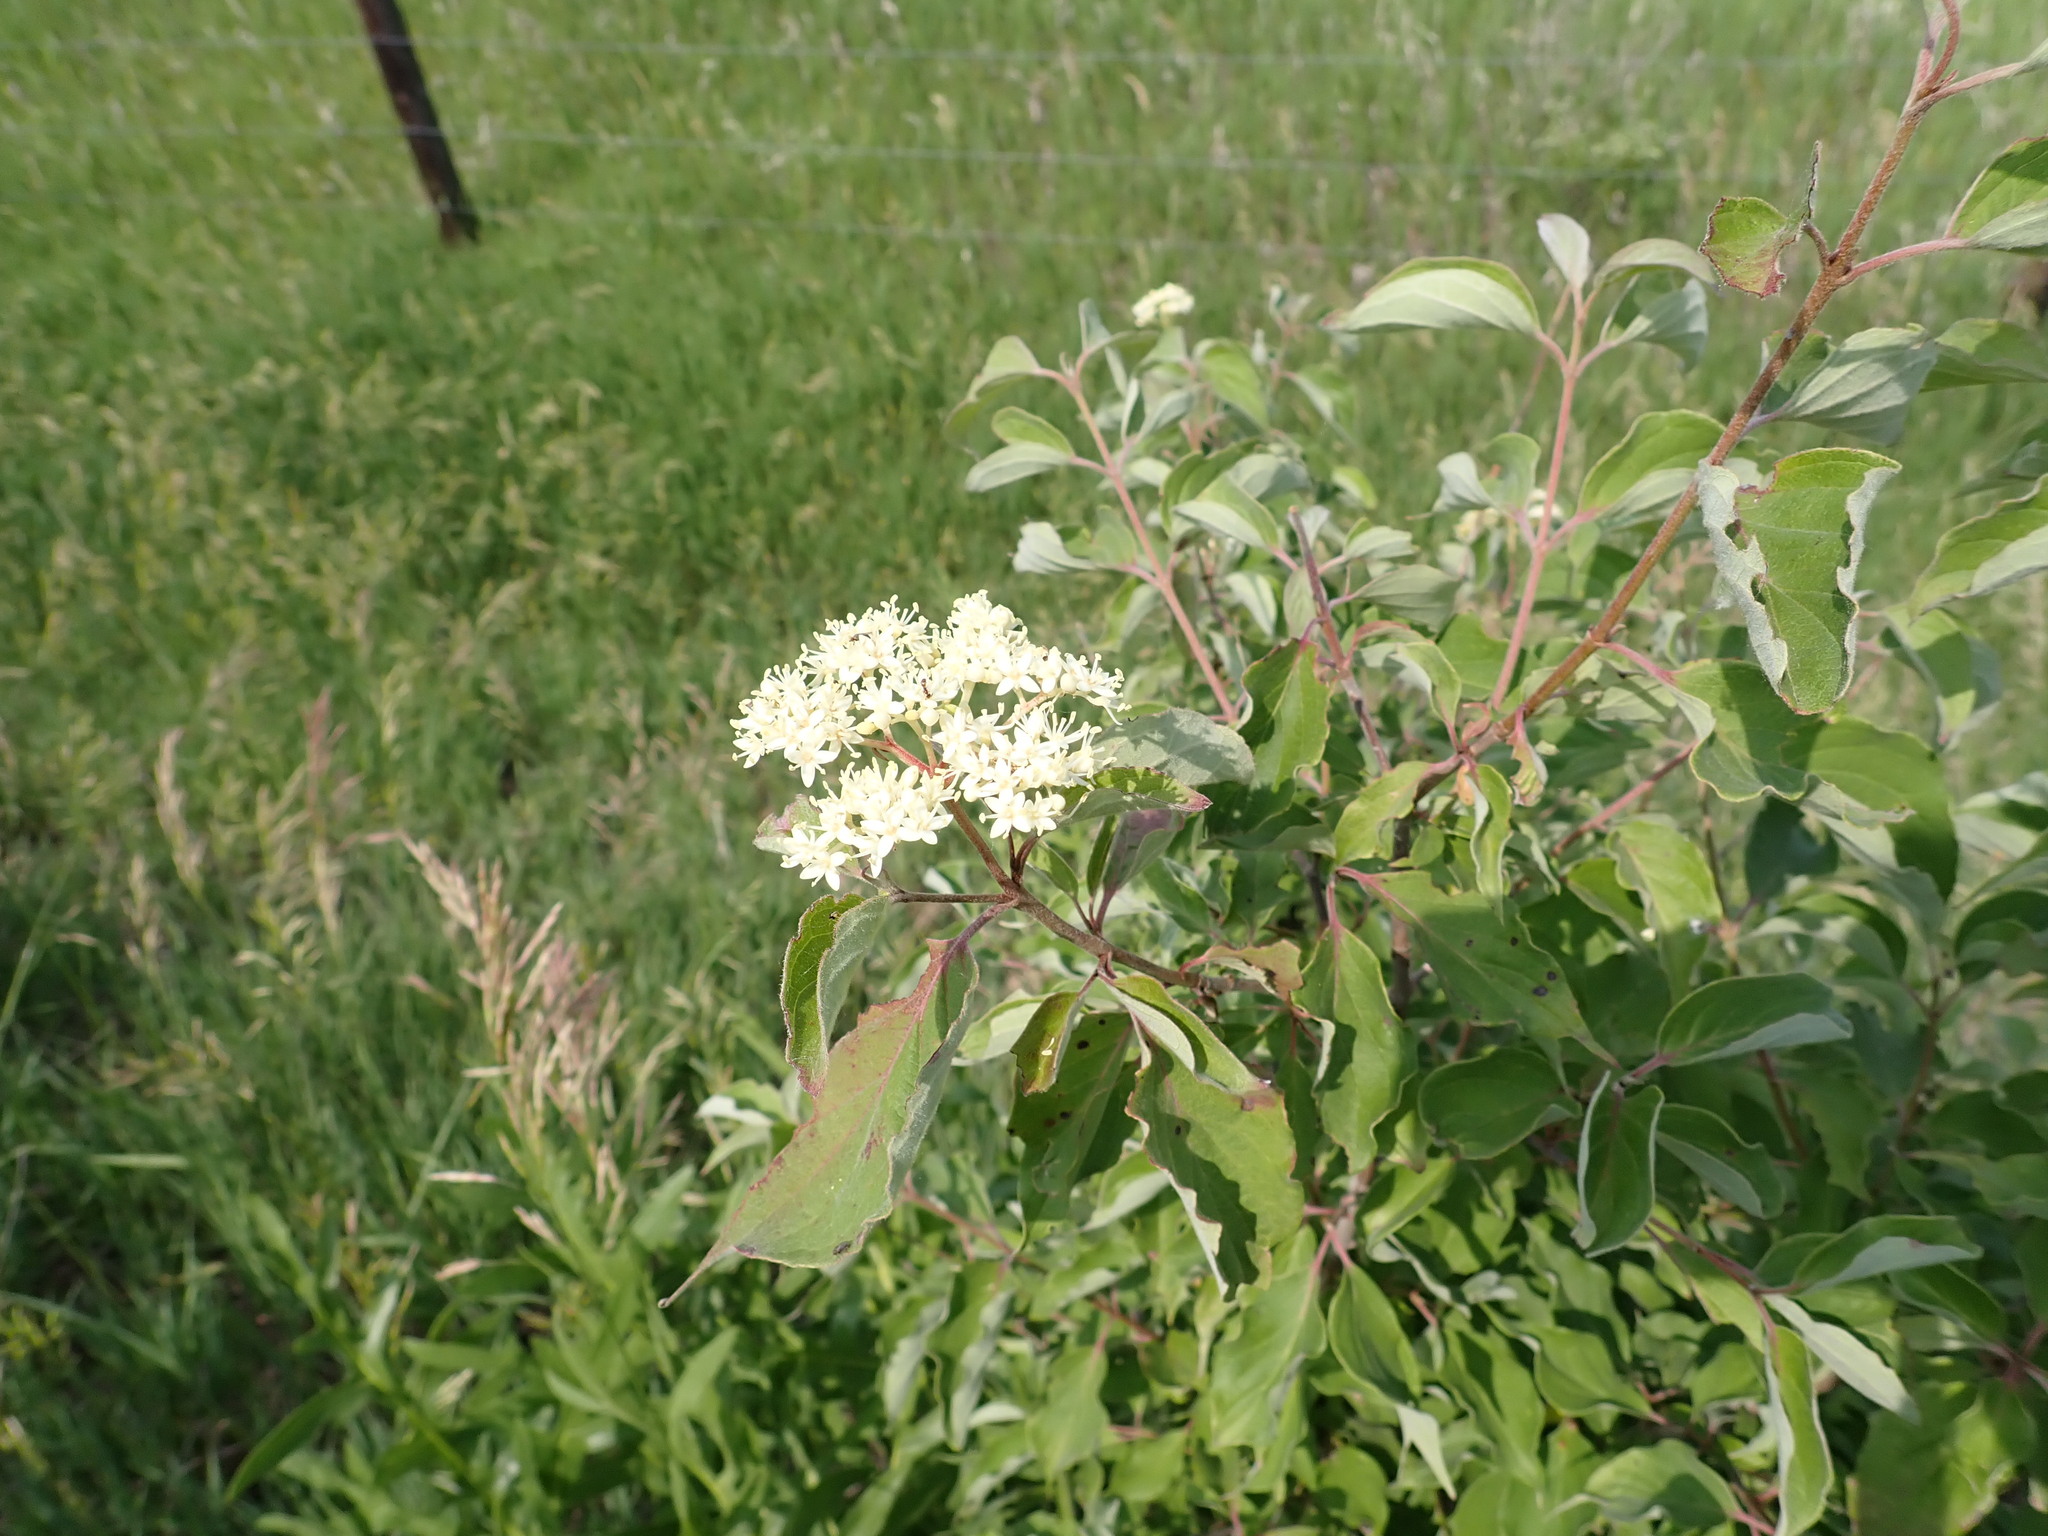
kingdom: Plantae
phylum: Tracheophyta
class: Magnoliopsida
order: Cornales
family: Cornaceae
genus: Cornus
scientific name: Cornus drummondii
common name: Rough-leaf dogwood
